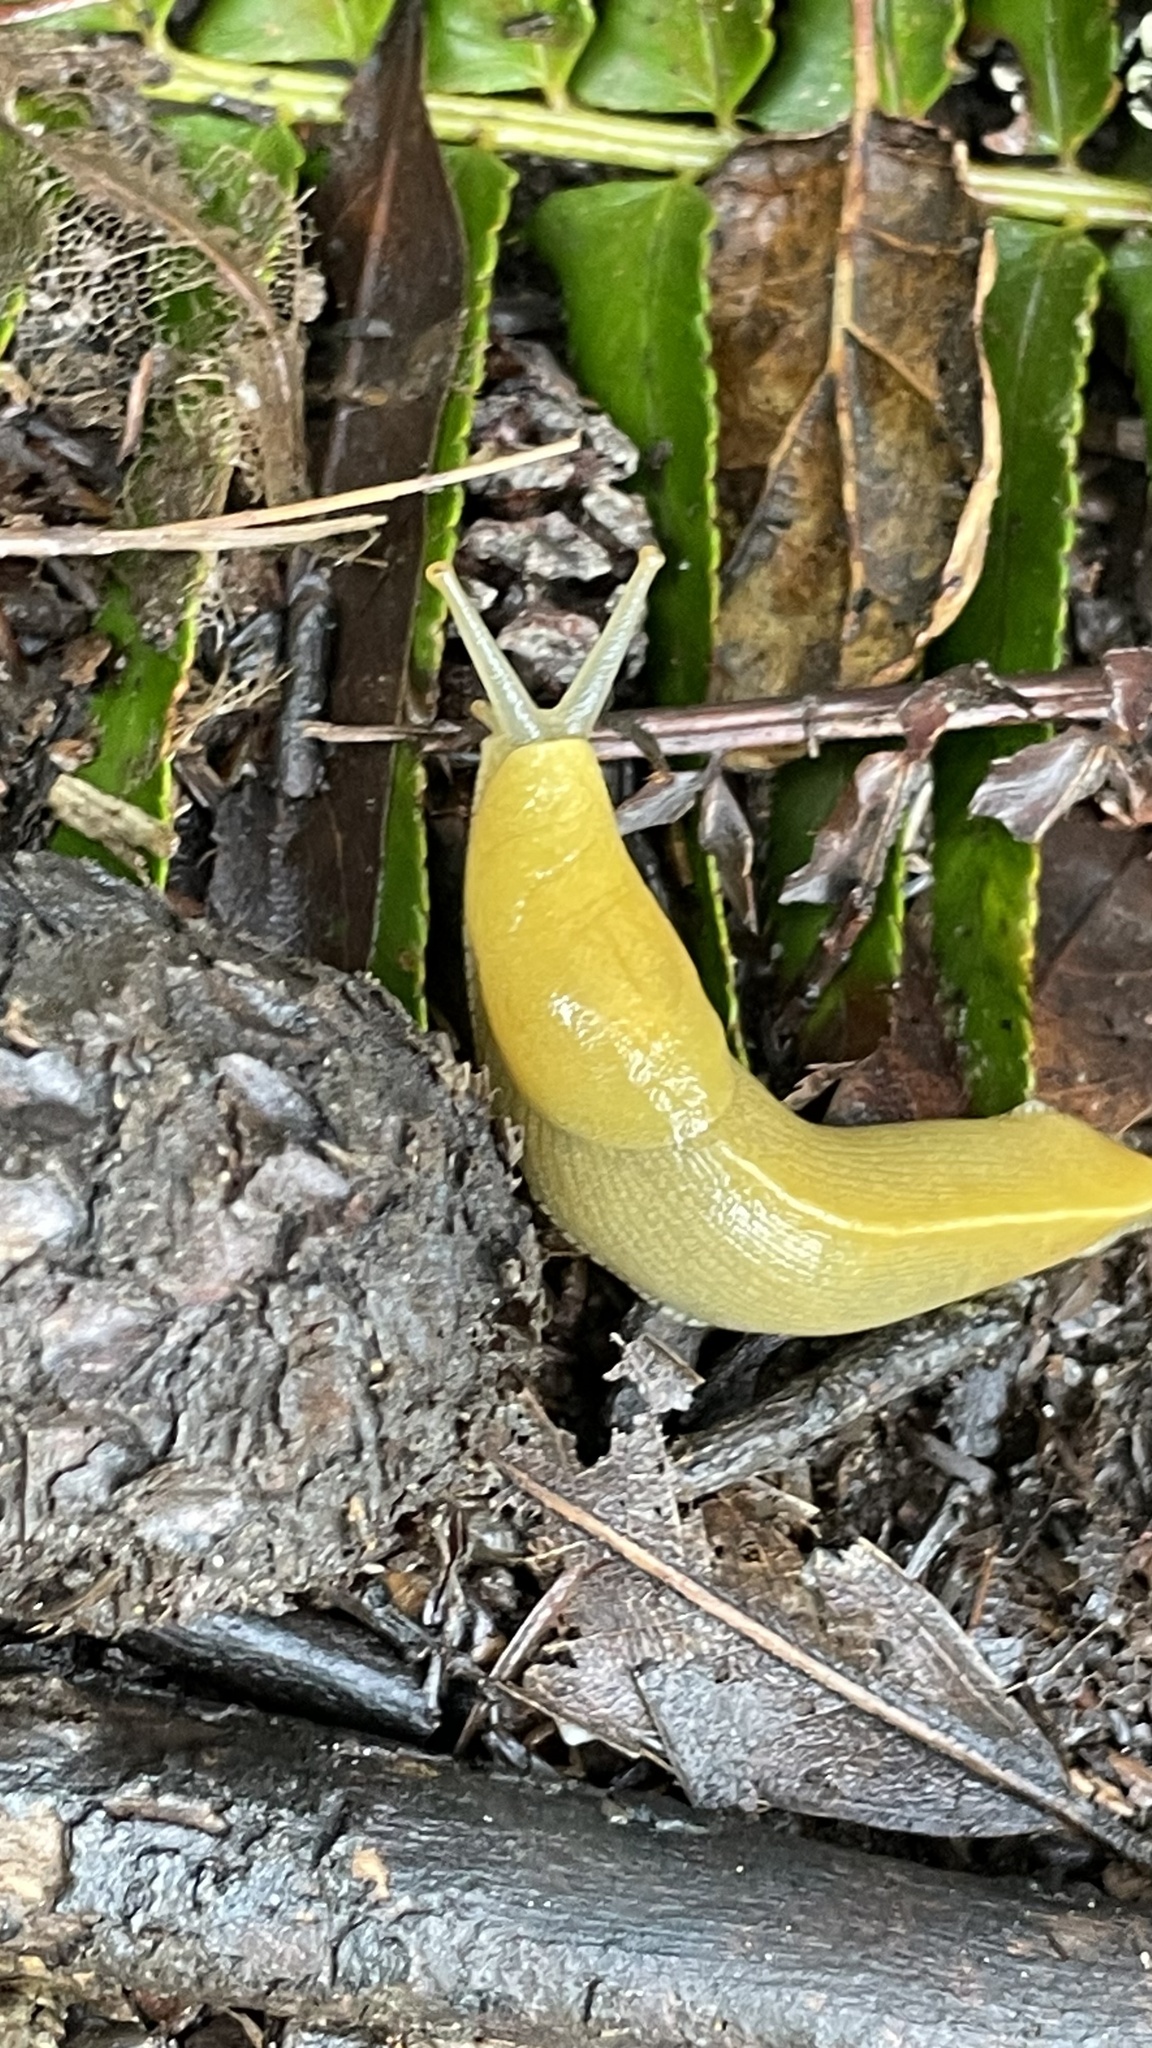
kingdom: Animalia
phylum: Mollusca
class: Gastropoda
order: Stylommatophora
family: Ariolimacidae
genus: Ariolimax
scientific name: Ariolimax dolichophallus
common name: Slender banana slug
